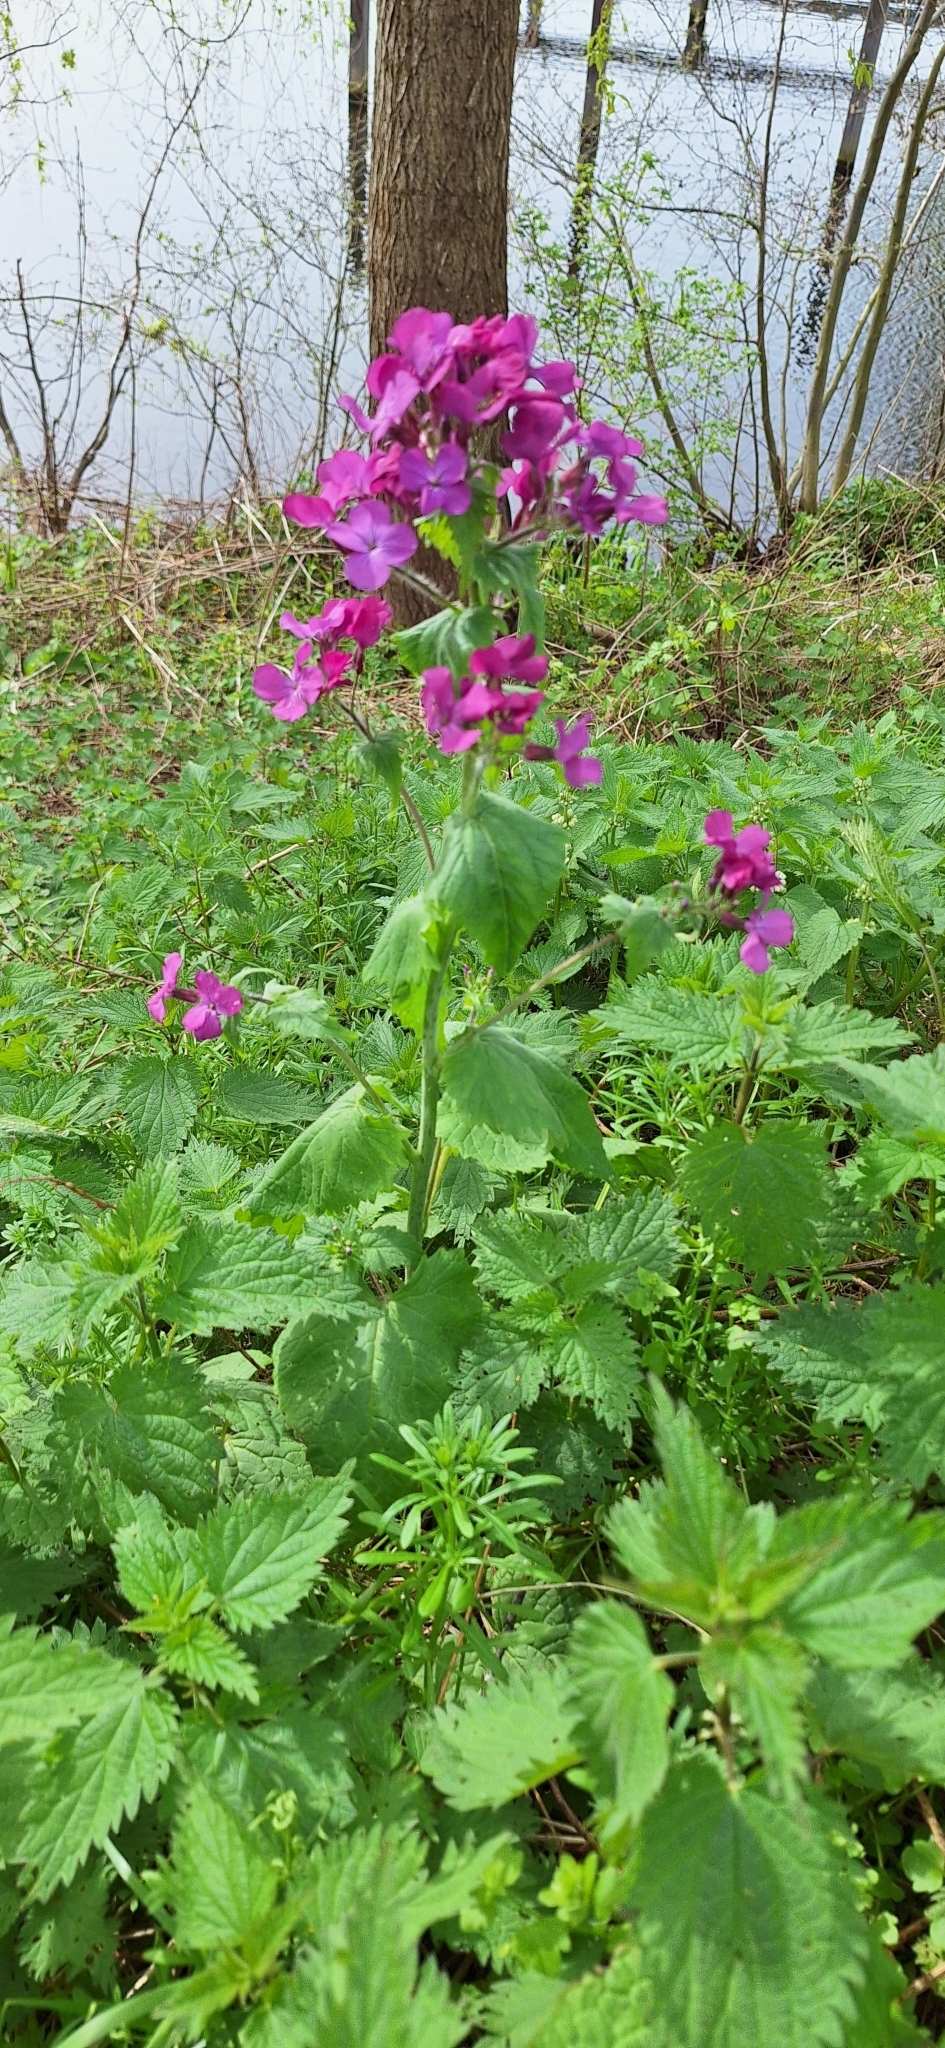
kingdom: Plantae
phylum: Tracheophyta
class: Magnoliopsida
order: Brassicales
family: Brassicaceae
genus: Lunaria
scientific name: Lunaria annua
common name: Honesty
